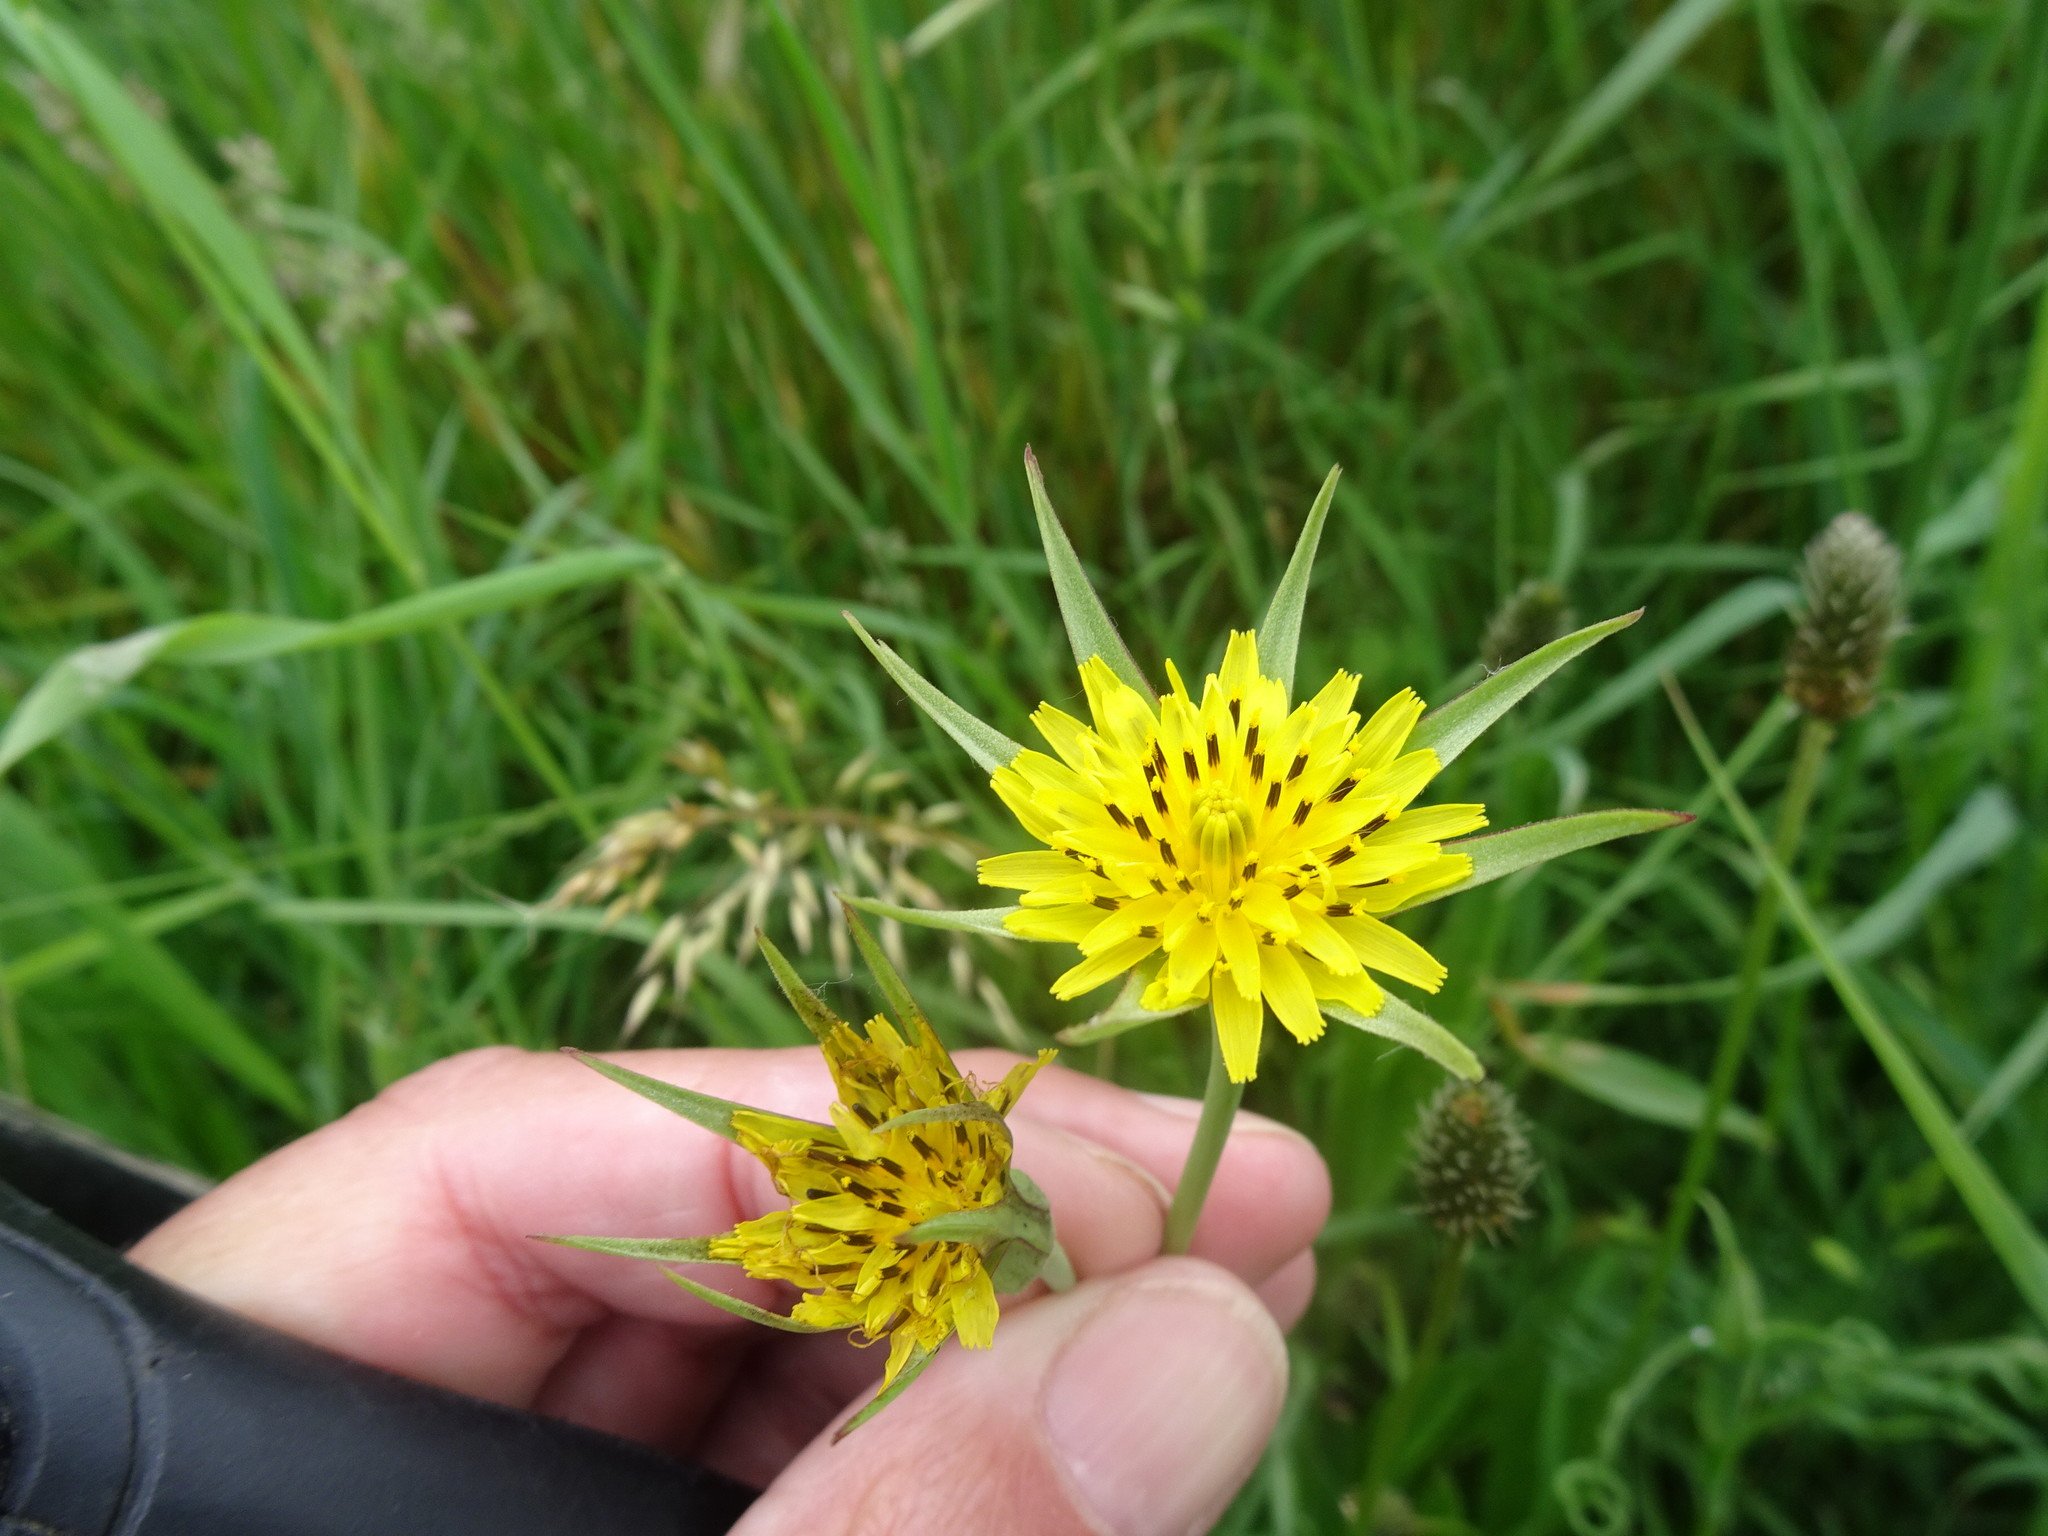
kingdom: Plantae
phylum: Tracheophyta
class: Magnoliopsida
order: Asterales
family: Asteraceae
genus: Tragopogon
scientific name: Tragopogon minor
